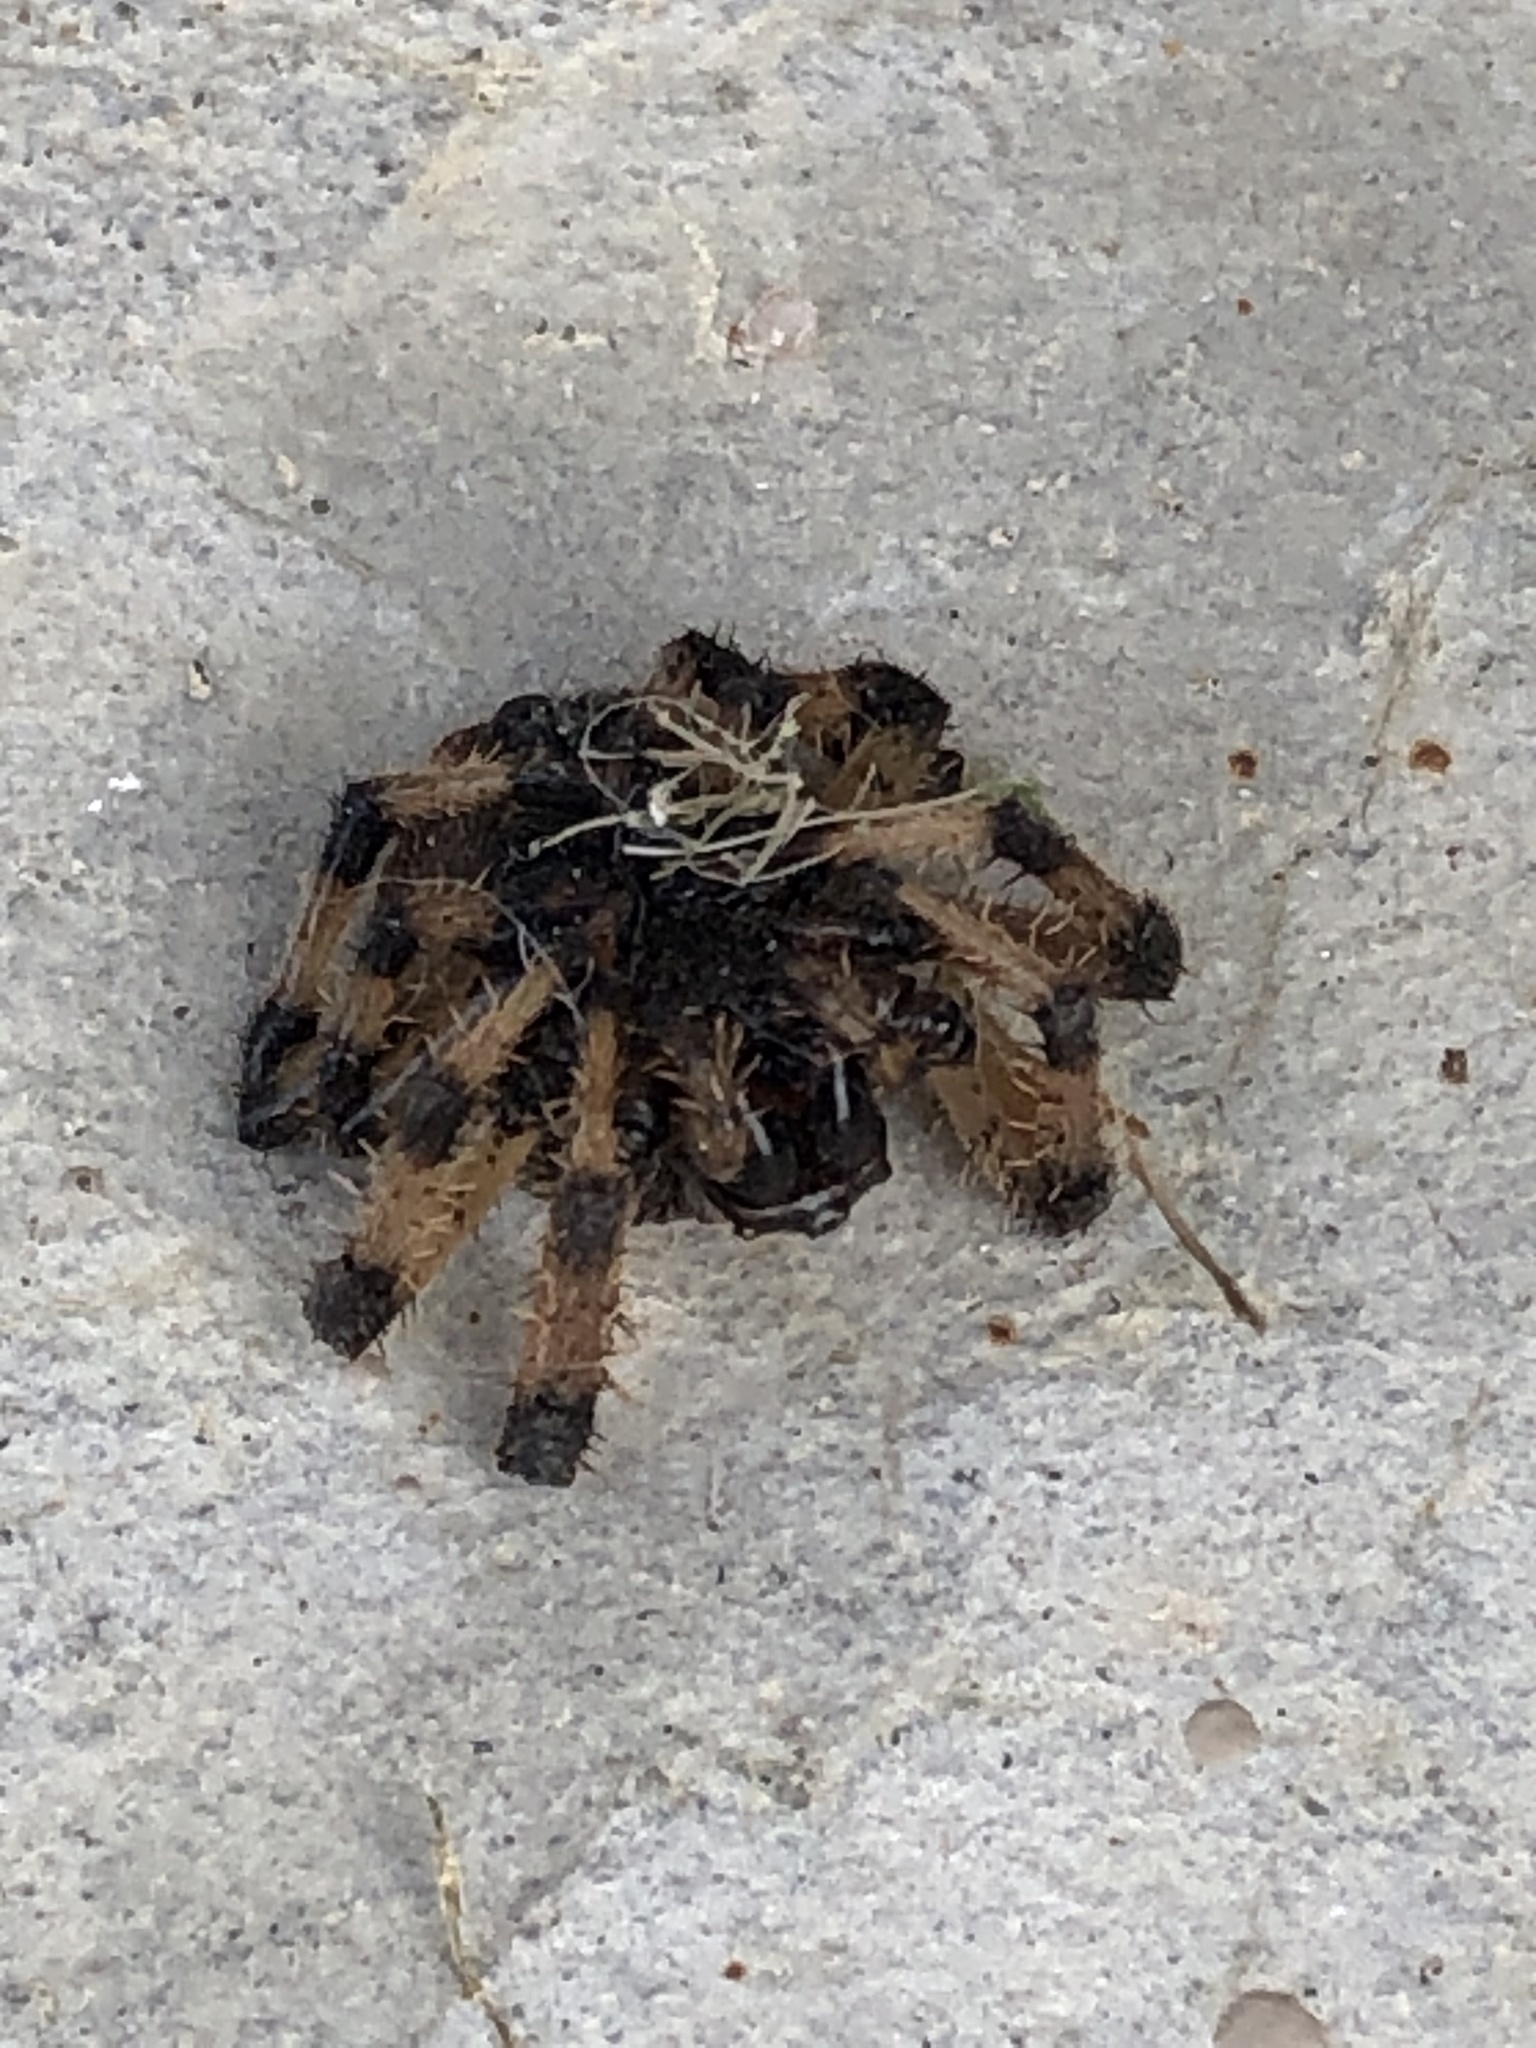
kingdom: Animalia
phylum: Arthropoda
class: Arachnida
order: Araneae
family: Araneidae
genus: Larinioides
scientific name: Larinioides cornutus
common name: Furrow orbweaver
